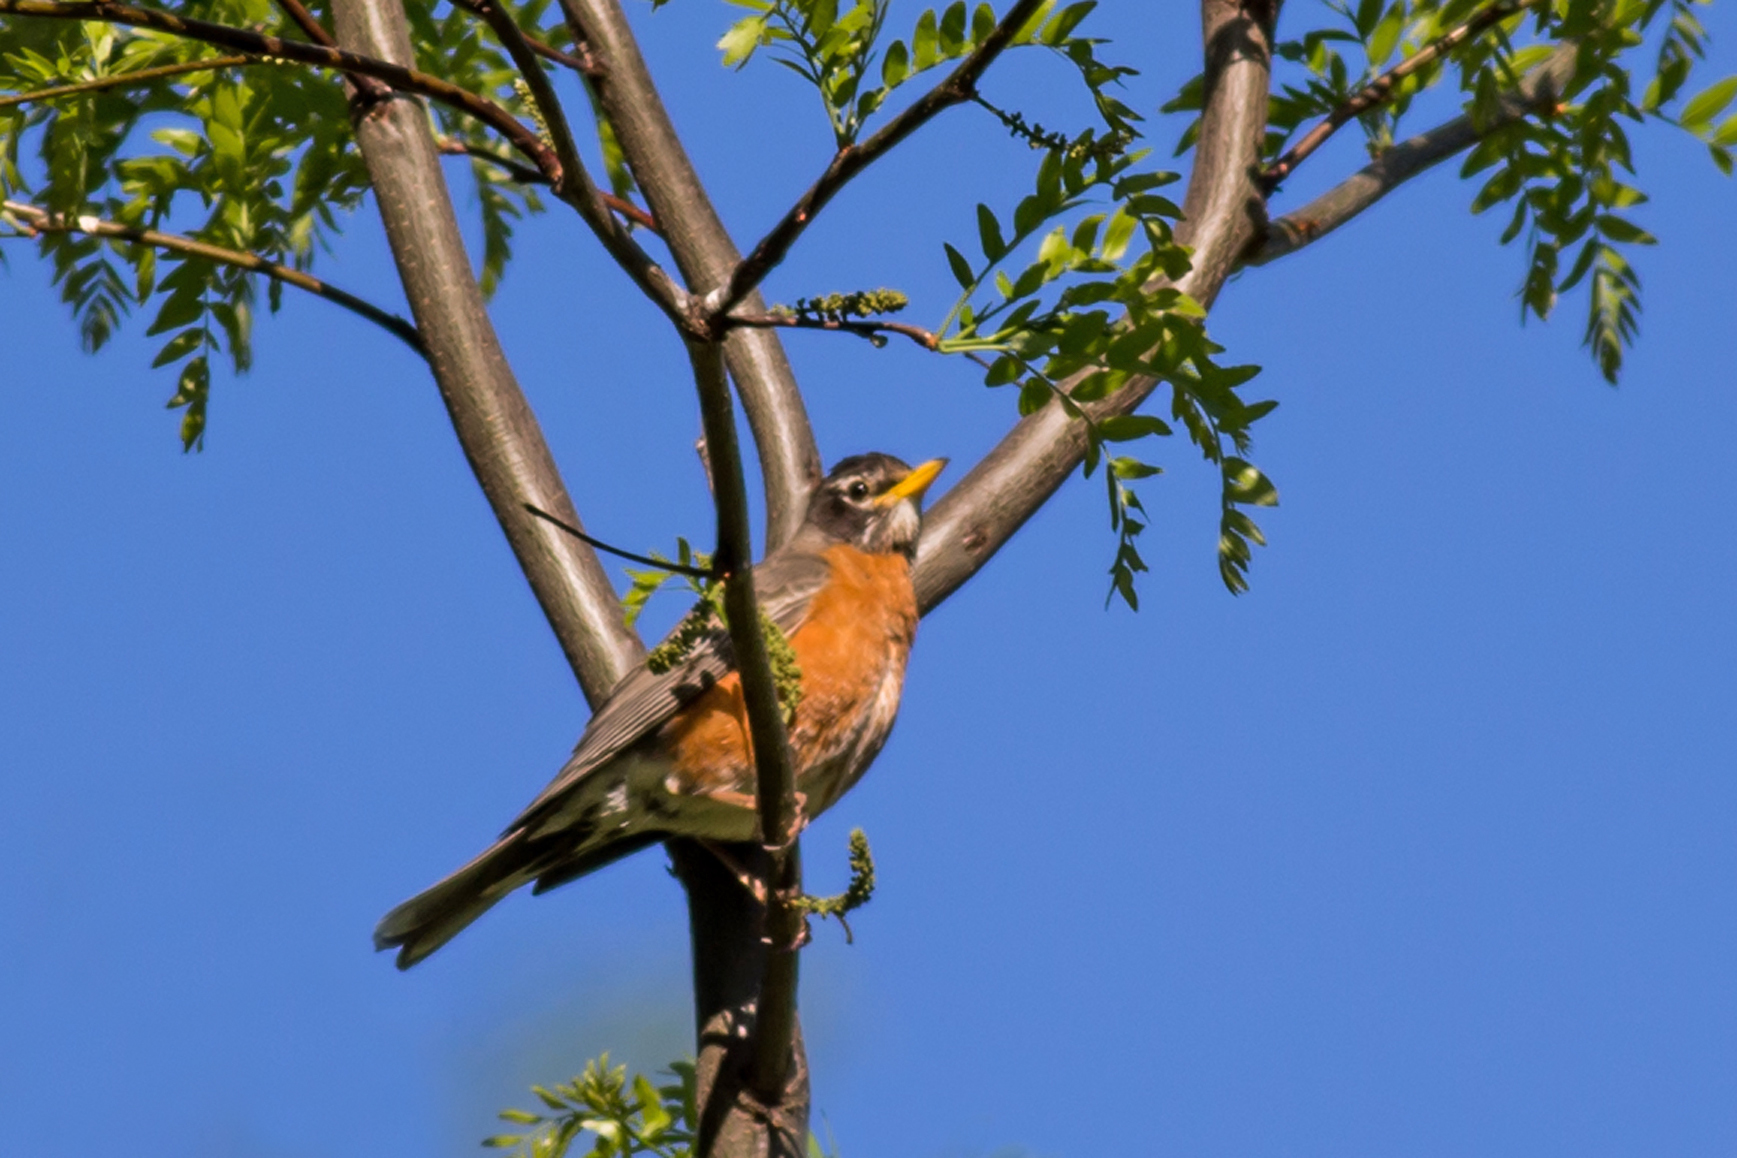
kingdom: Animalia
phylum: Chordata
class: Aves
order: Passeriformes
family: Turdidae
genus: Turdus
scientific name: Turdus migratorius
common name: American robin
